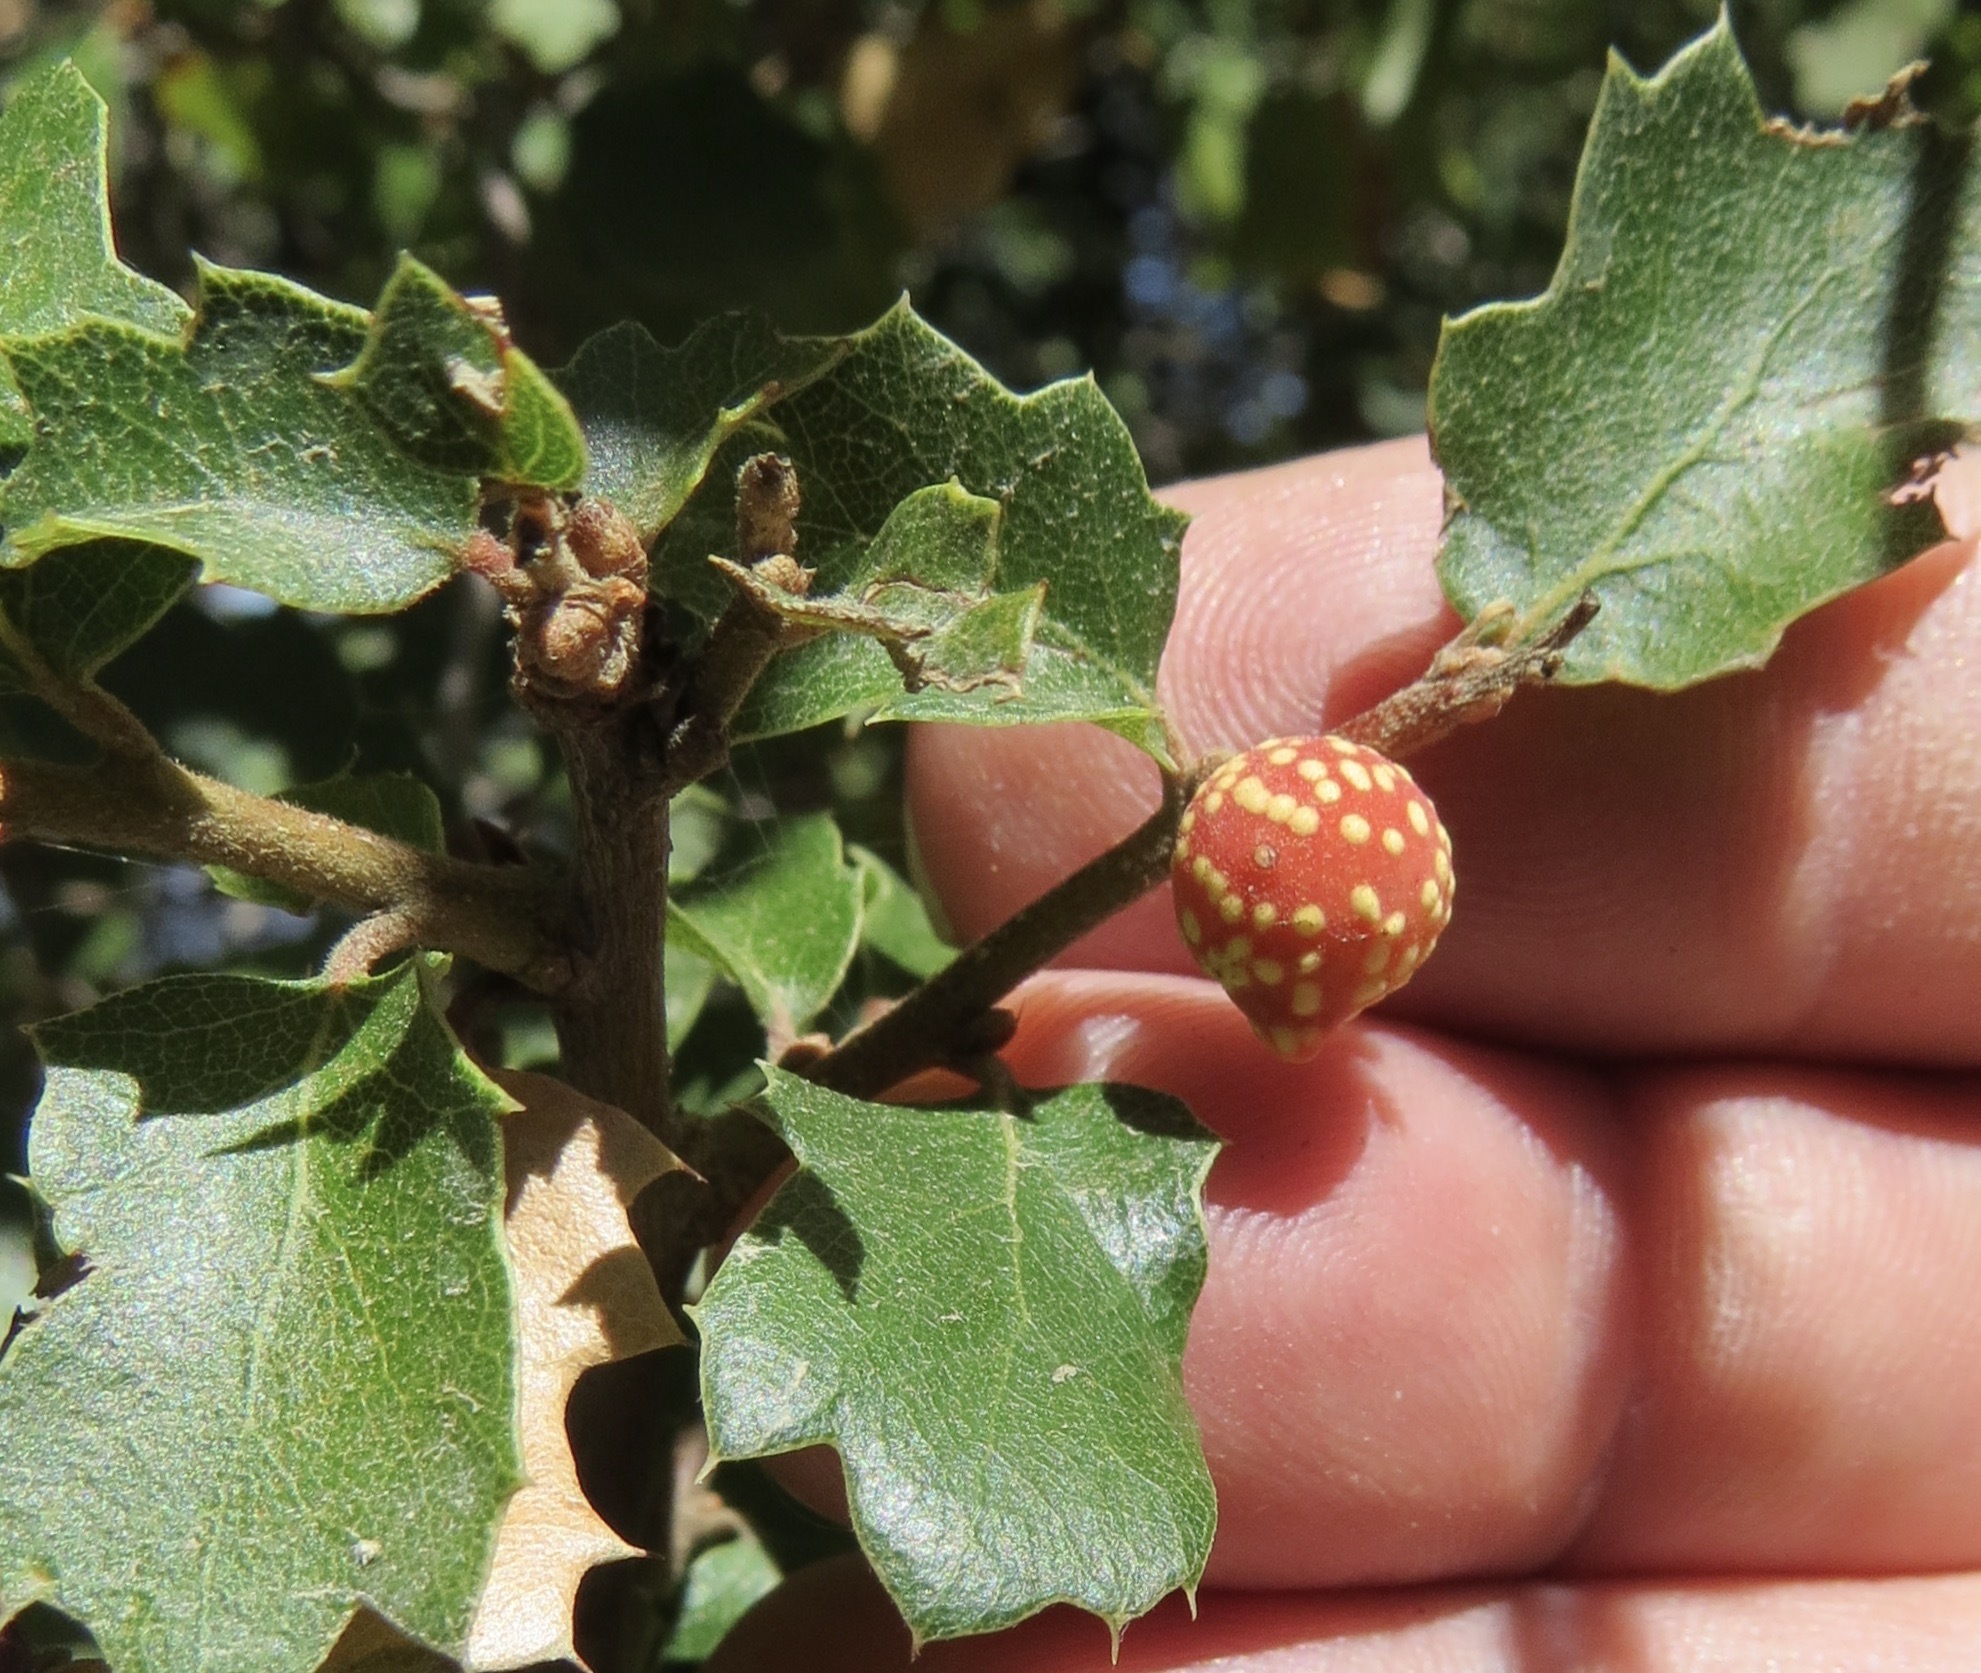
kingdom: Animalia
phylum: Arthropoda
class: Insecta
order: Hymenoptera
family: Cynipidae
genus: Burnettweldia
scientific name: Burnettweldia
